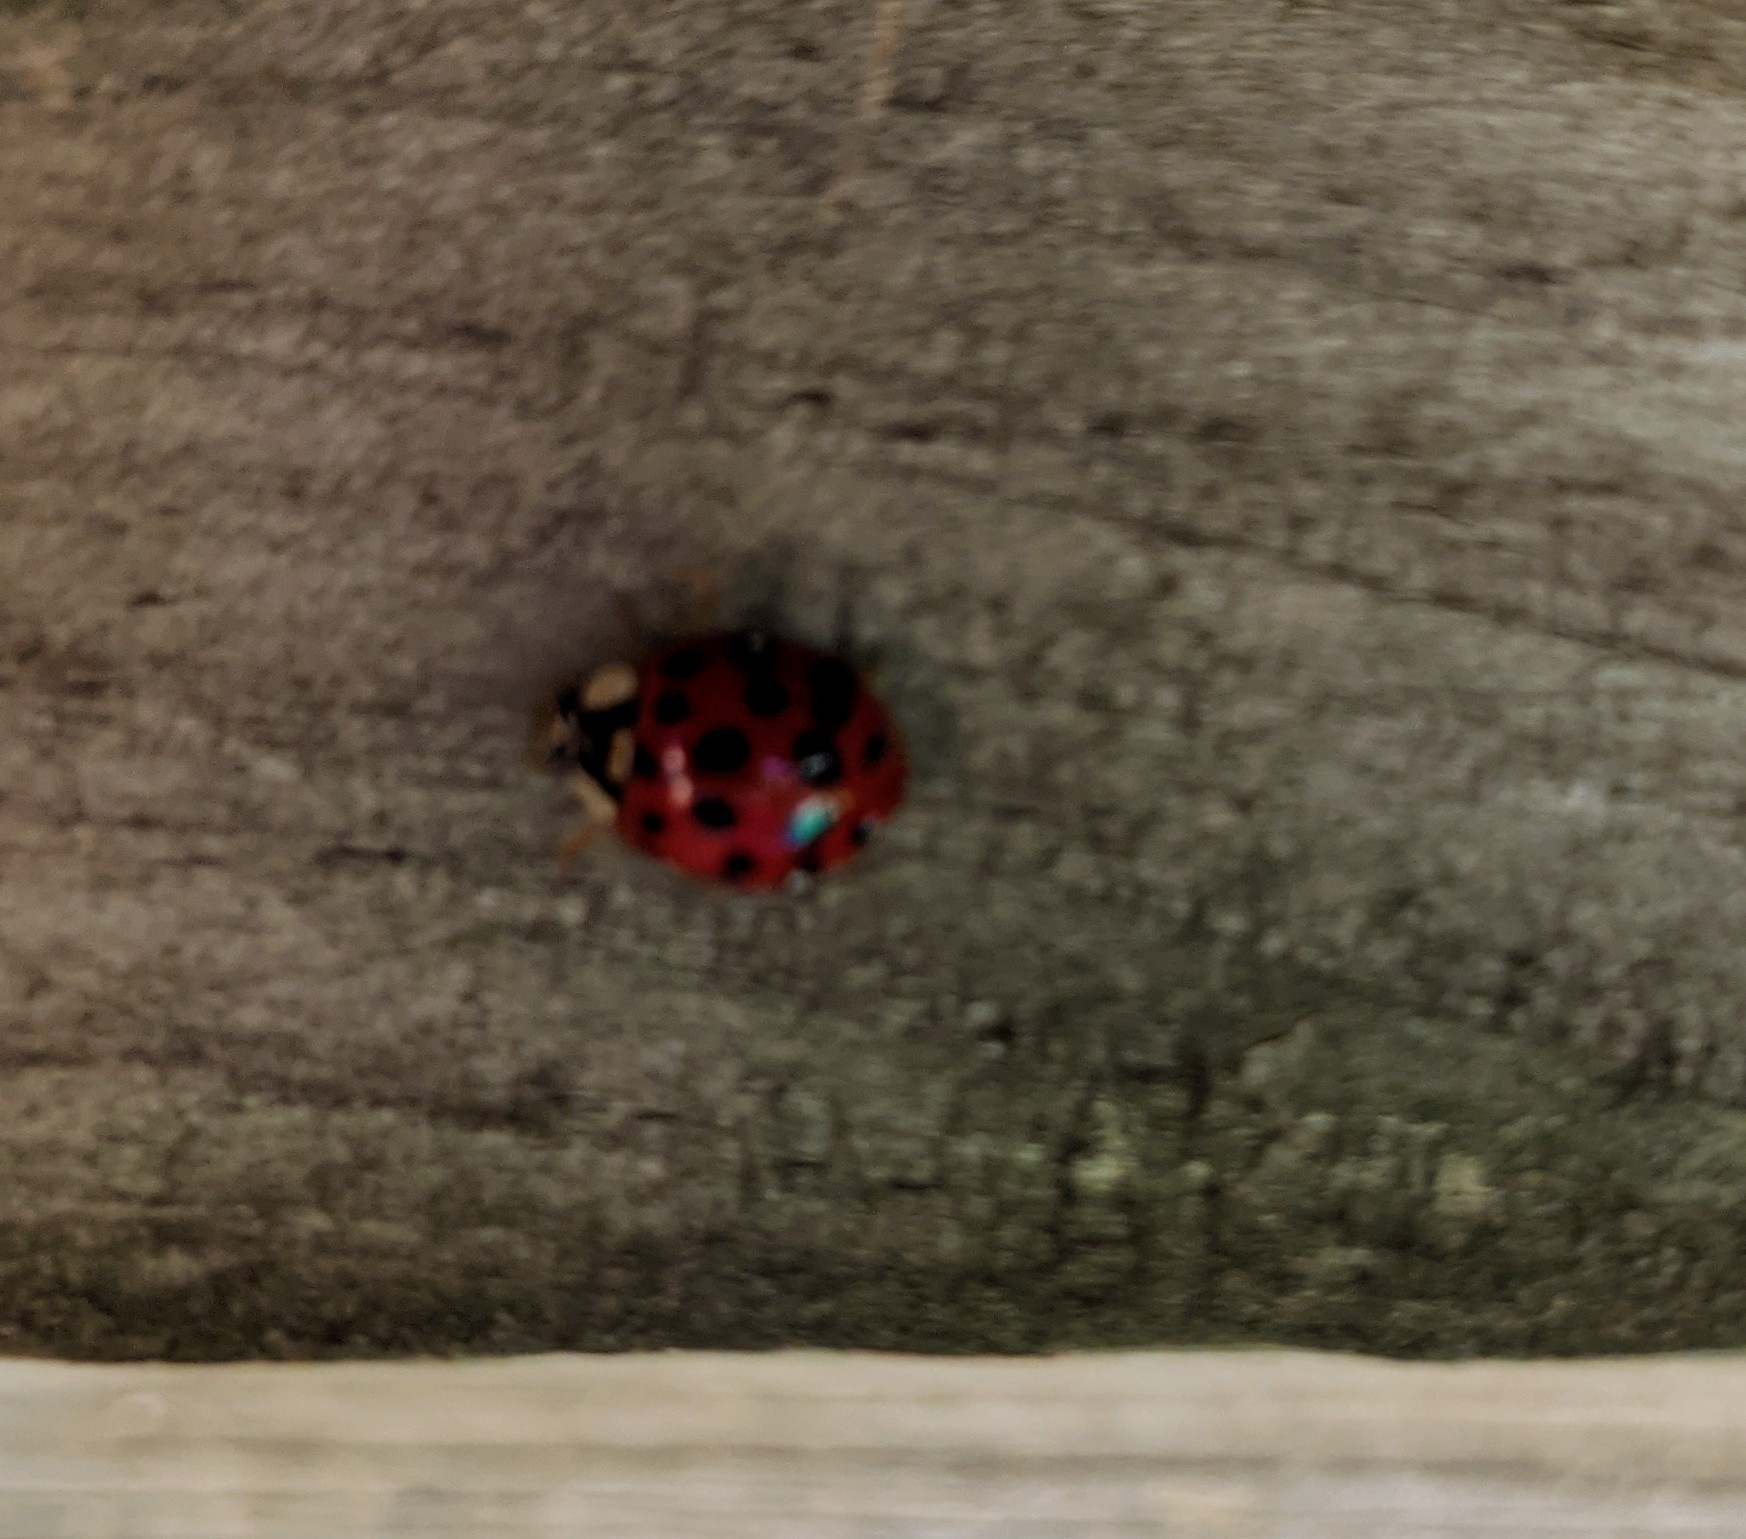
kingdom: Animalia
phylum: Arthropoda
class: Insecta
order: Coleoptera
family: Coccinellidae
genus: Harmonia
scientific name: Harmonia axyridis
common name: Harlequin ladybird
